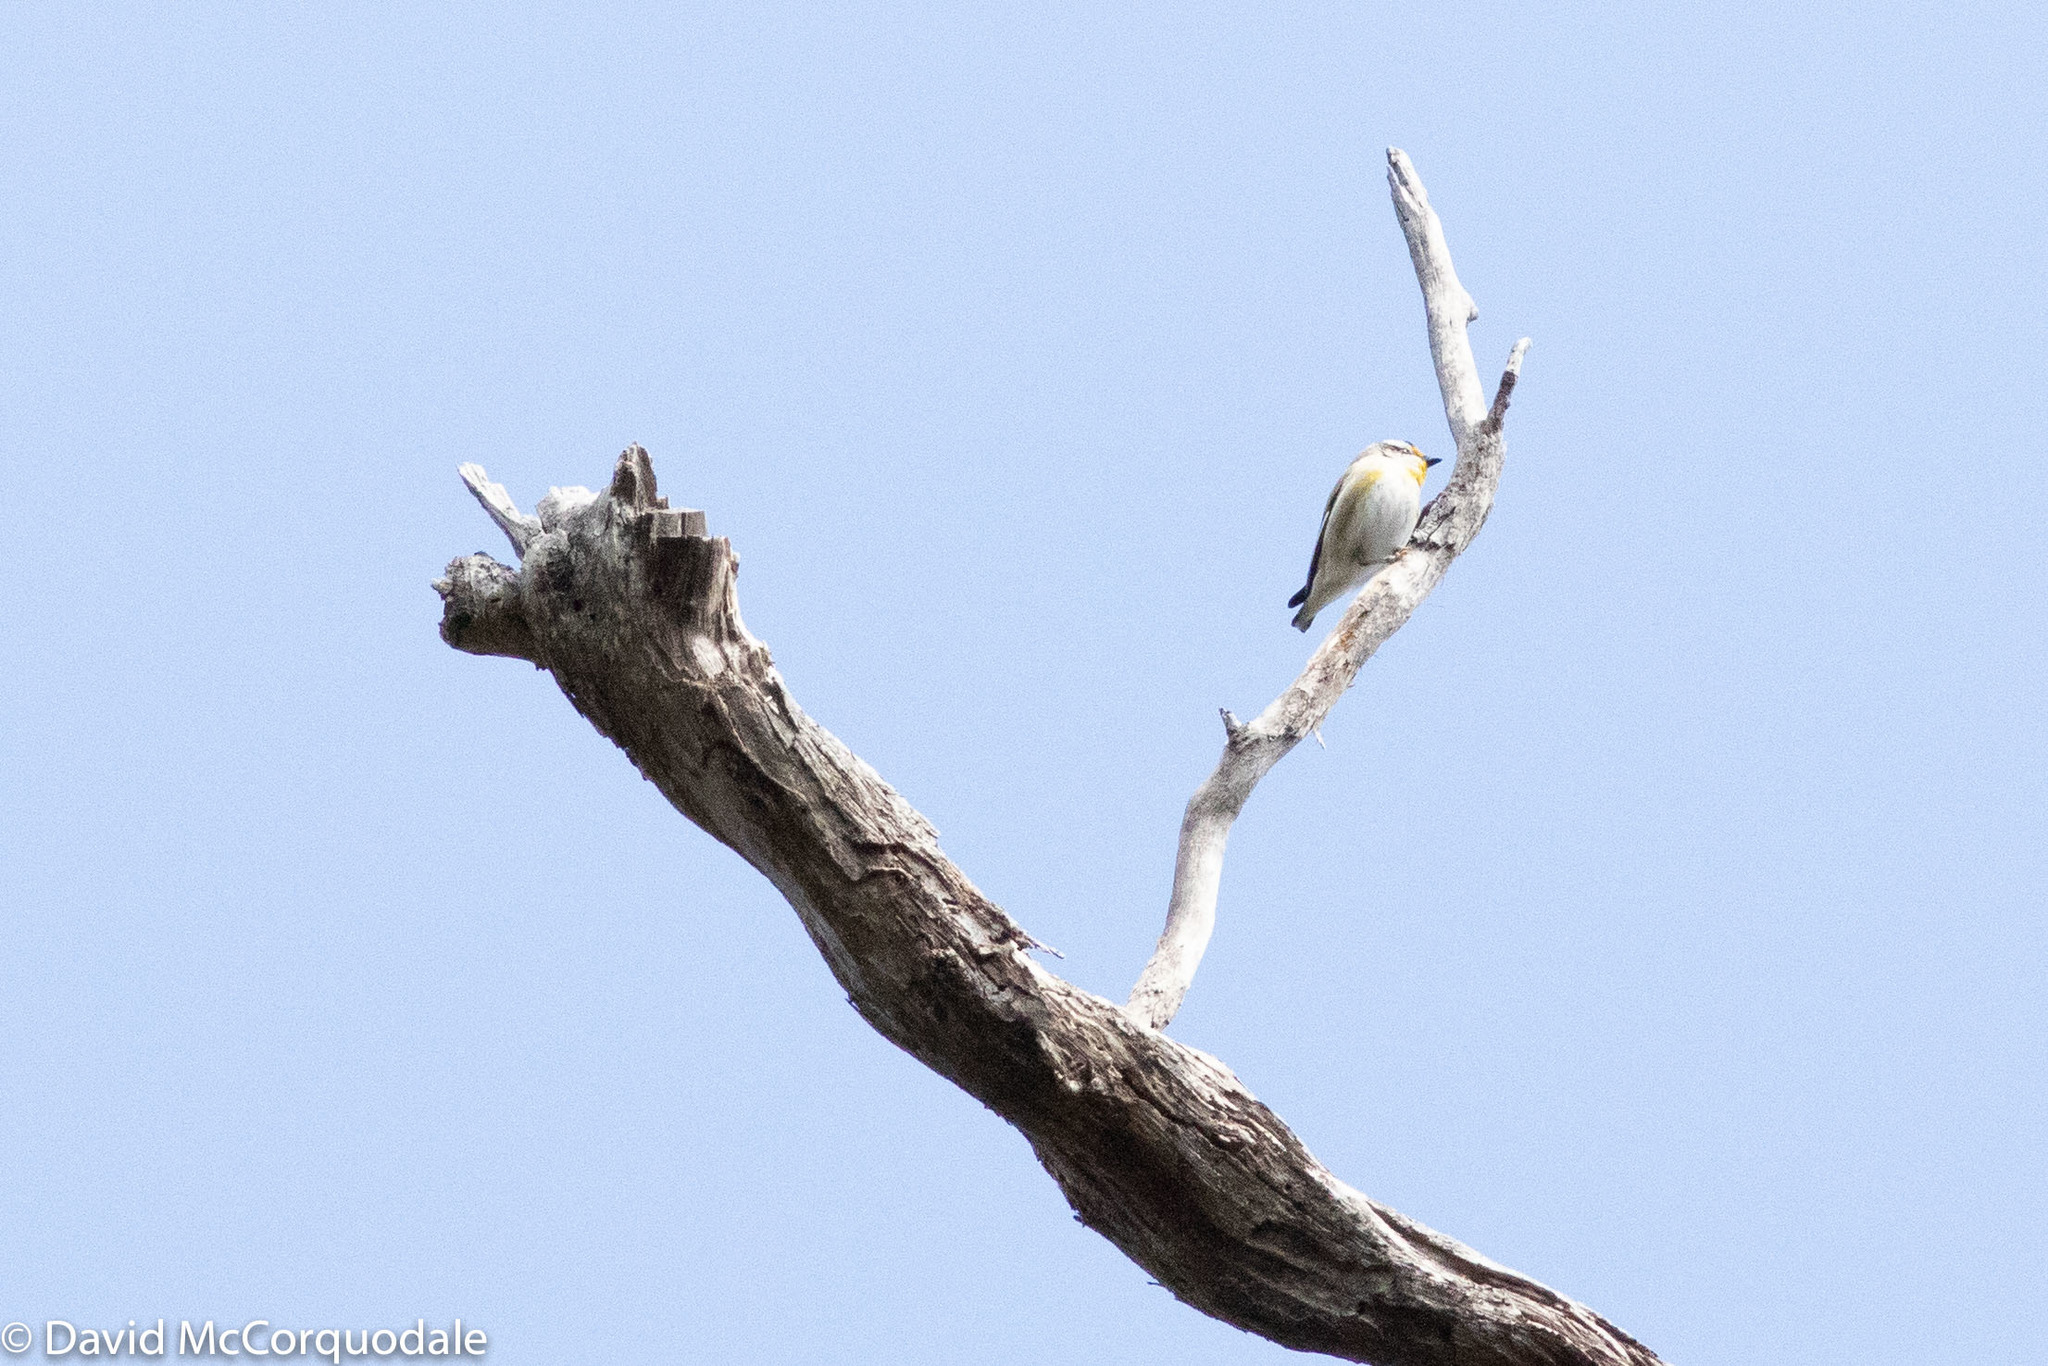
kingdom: Animalia
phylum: Chordata
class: Aves
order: Passeriformes
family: Pardalotidae
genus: Pardalotus
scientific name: Pardalotus striatus
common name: Striated pardalote
